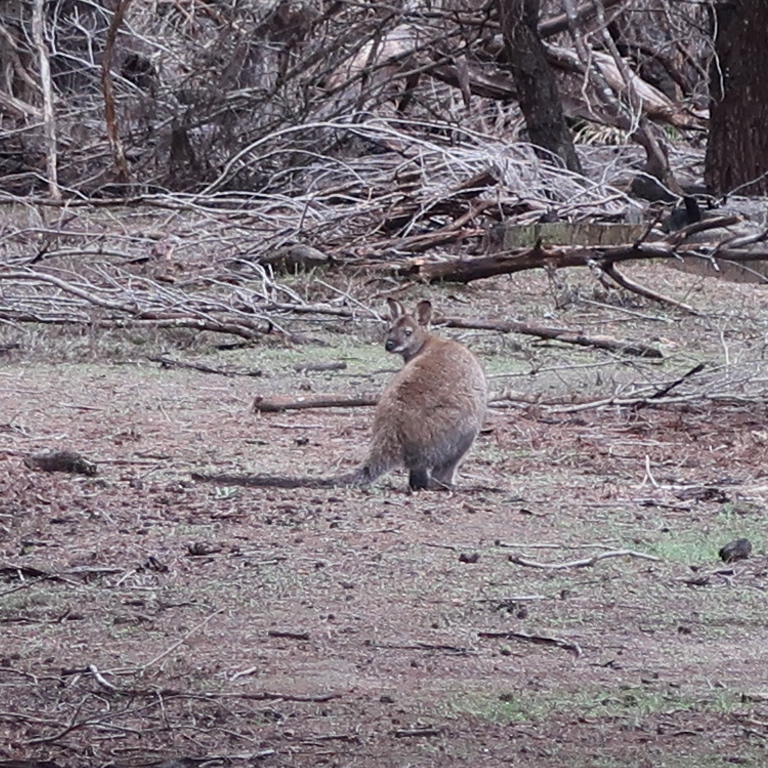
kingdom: Animalia
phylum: Chordata
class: Mammalia
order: Diprotodontia
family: Macropodidae
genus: Notamacropus
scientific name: Notamacropus rufogriseus
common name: Red-necked wallaby
